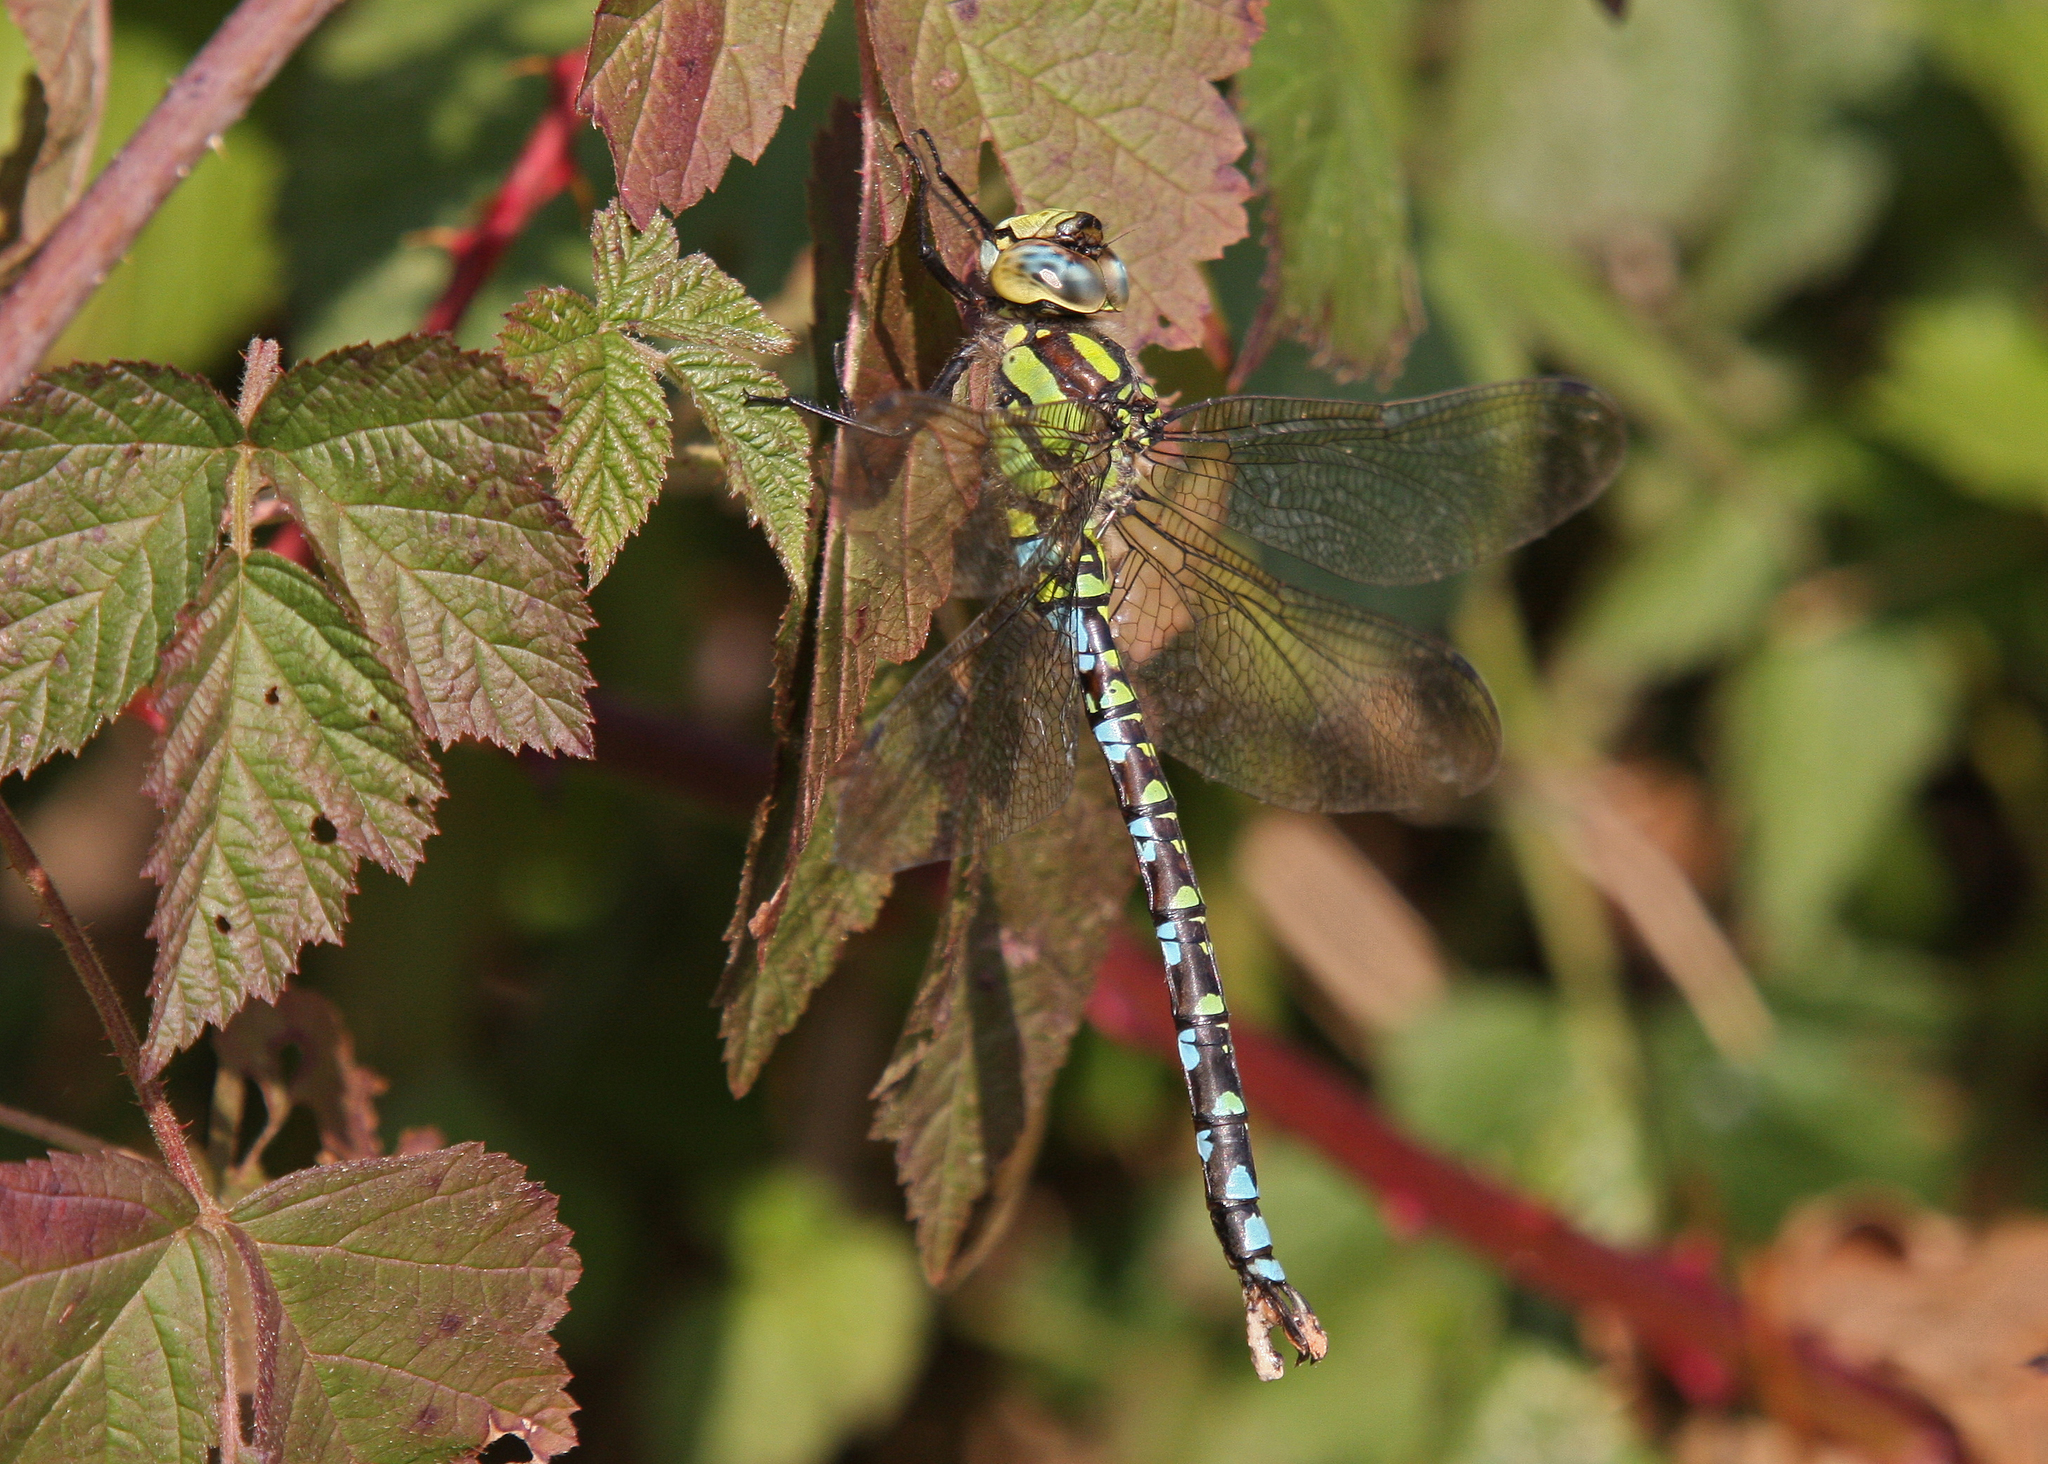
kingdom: Animalia
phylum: Arthropoda
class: Insecta
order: Odonata
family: Aeshnidae
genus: Aeshna
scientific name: Aeshna cyanea
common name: Southern hawker
